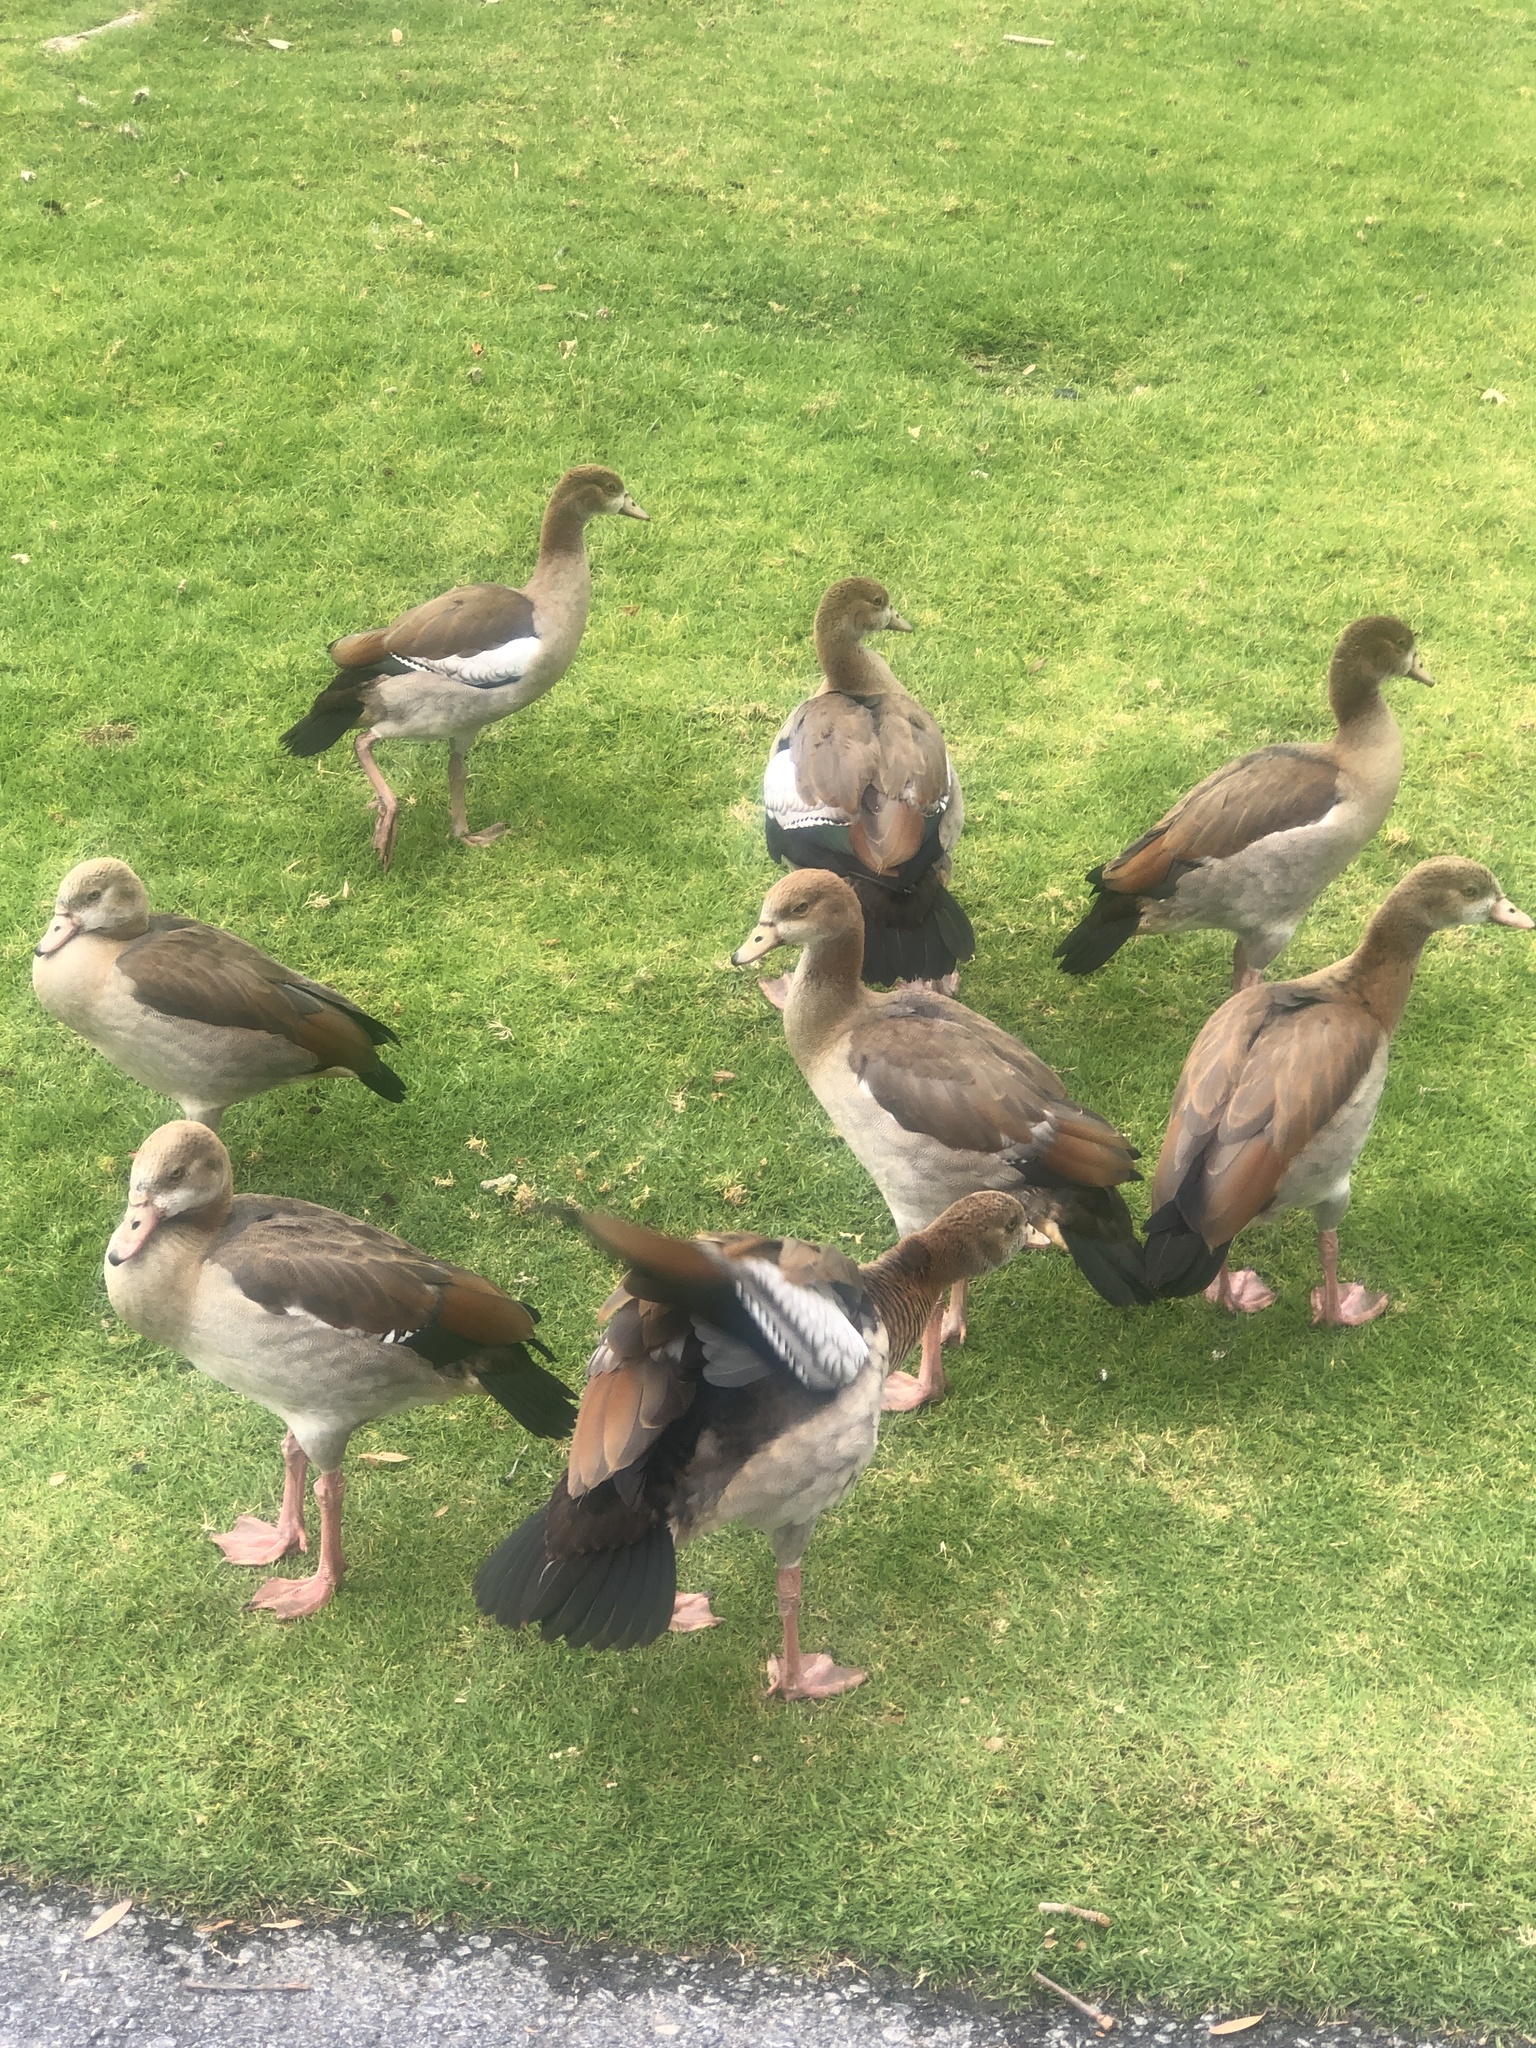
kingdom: Animalia
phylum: Chordata
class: Aves
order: Anseriformes
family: Anatidae
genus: Alopochen
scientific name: Alopochen aegyptiaca
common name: Egyptian goose
